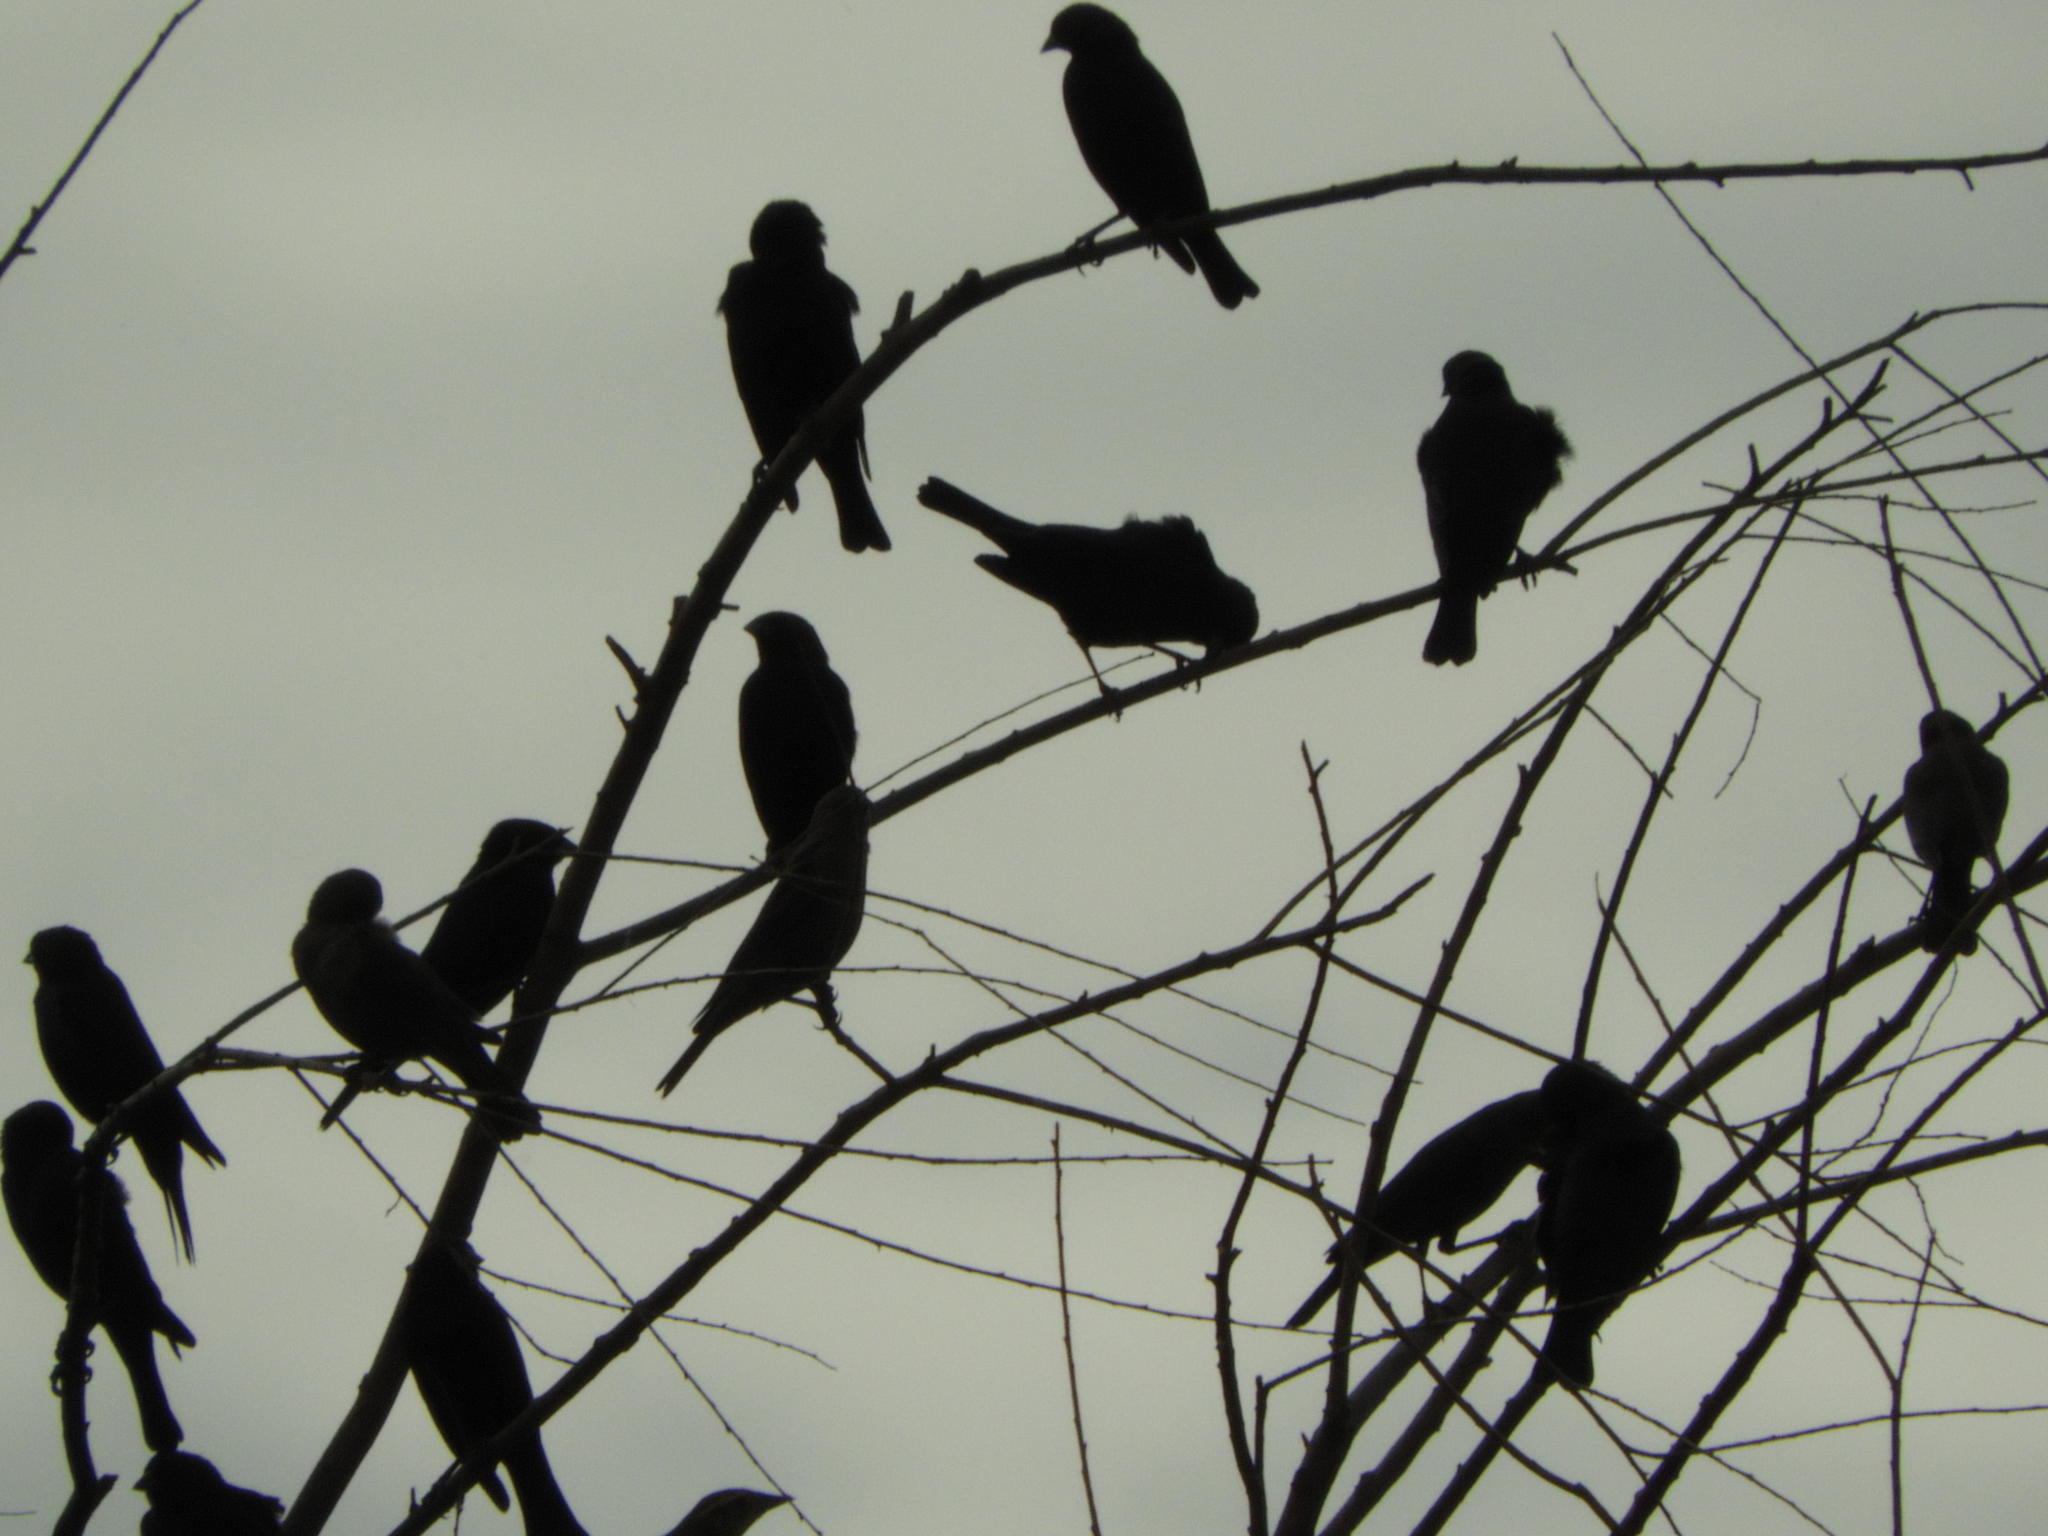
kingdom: Animalia
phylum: Chordata
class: Aves
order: Passeriformes
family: Icteridae
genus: Agelaius
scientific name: Agelaius phoeniceus
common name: Red-winged blackbird
